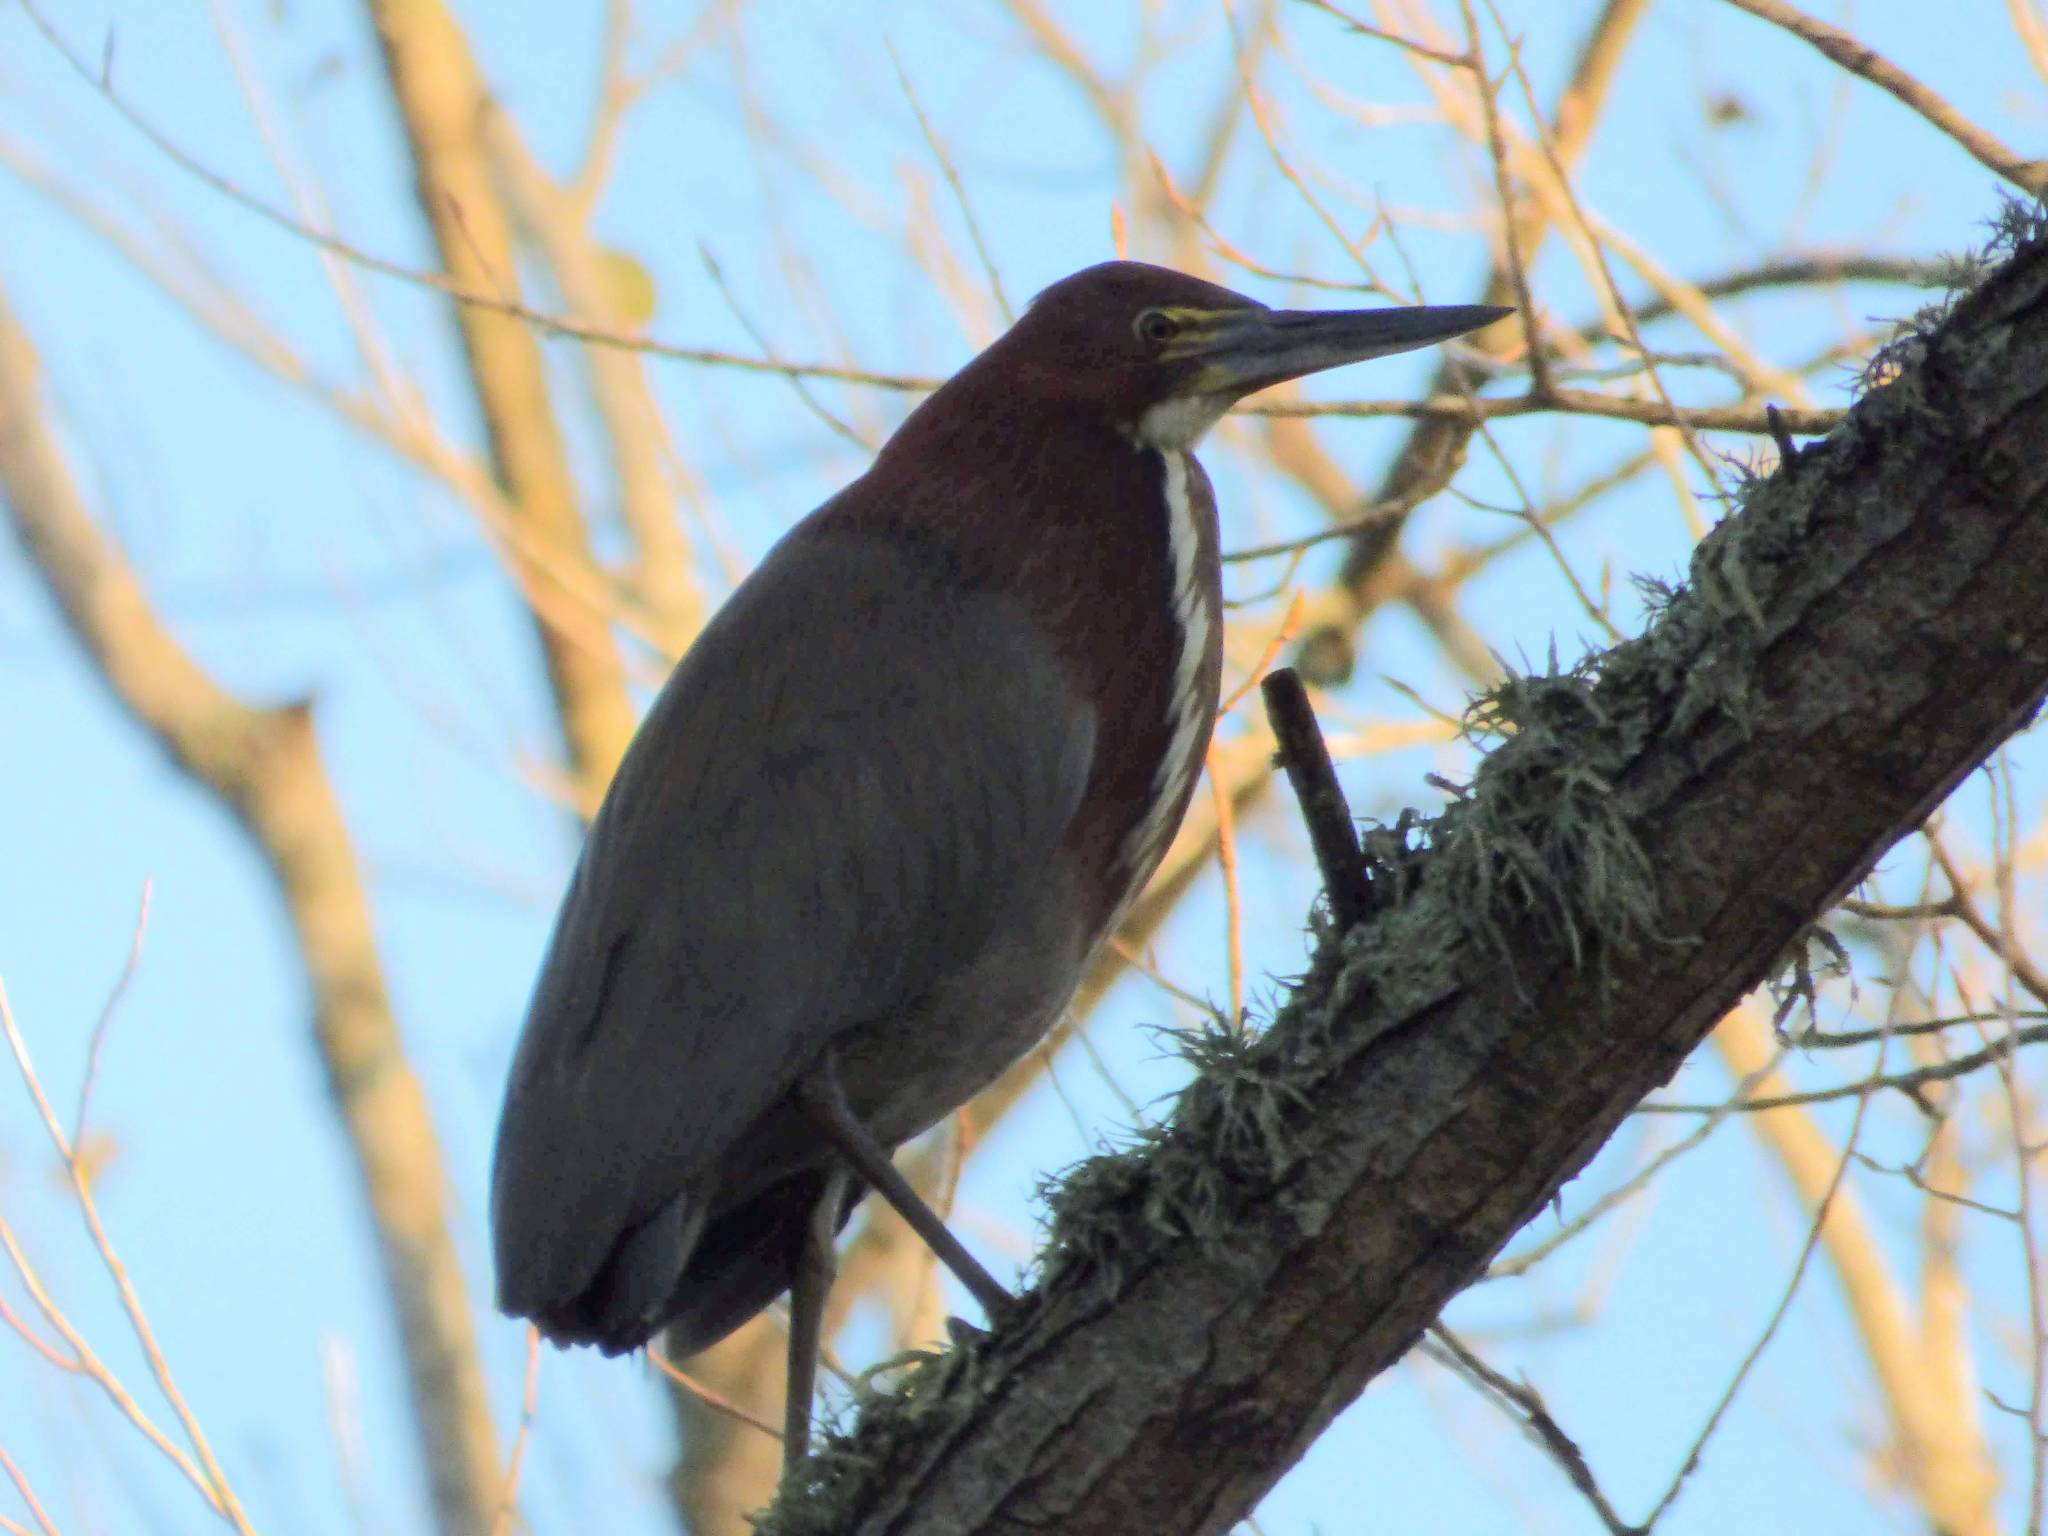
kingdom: Animalia
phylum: Chordata
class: Aves
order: Pelecaniformes
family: Ardeidae
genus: Tigrisoma
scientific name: Tigrisoma lineatum
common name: Rufescent tiger-heron
